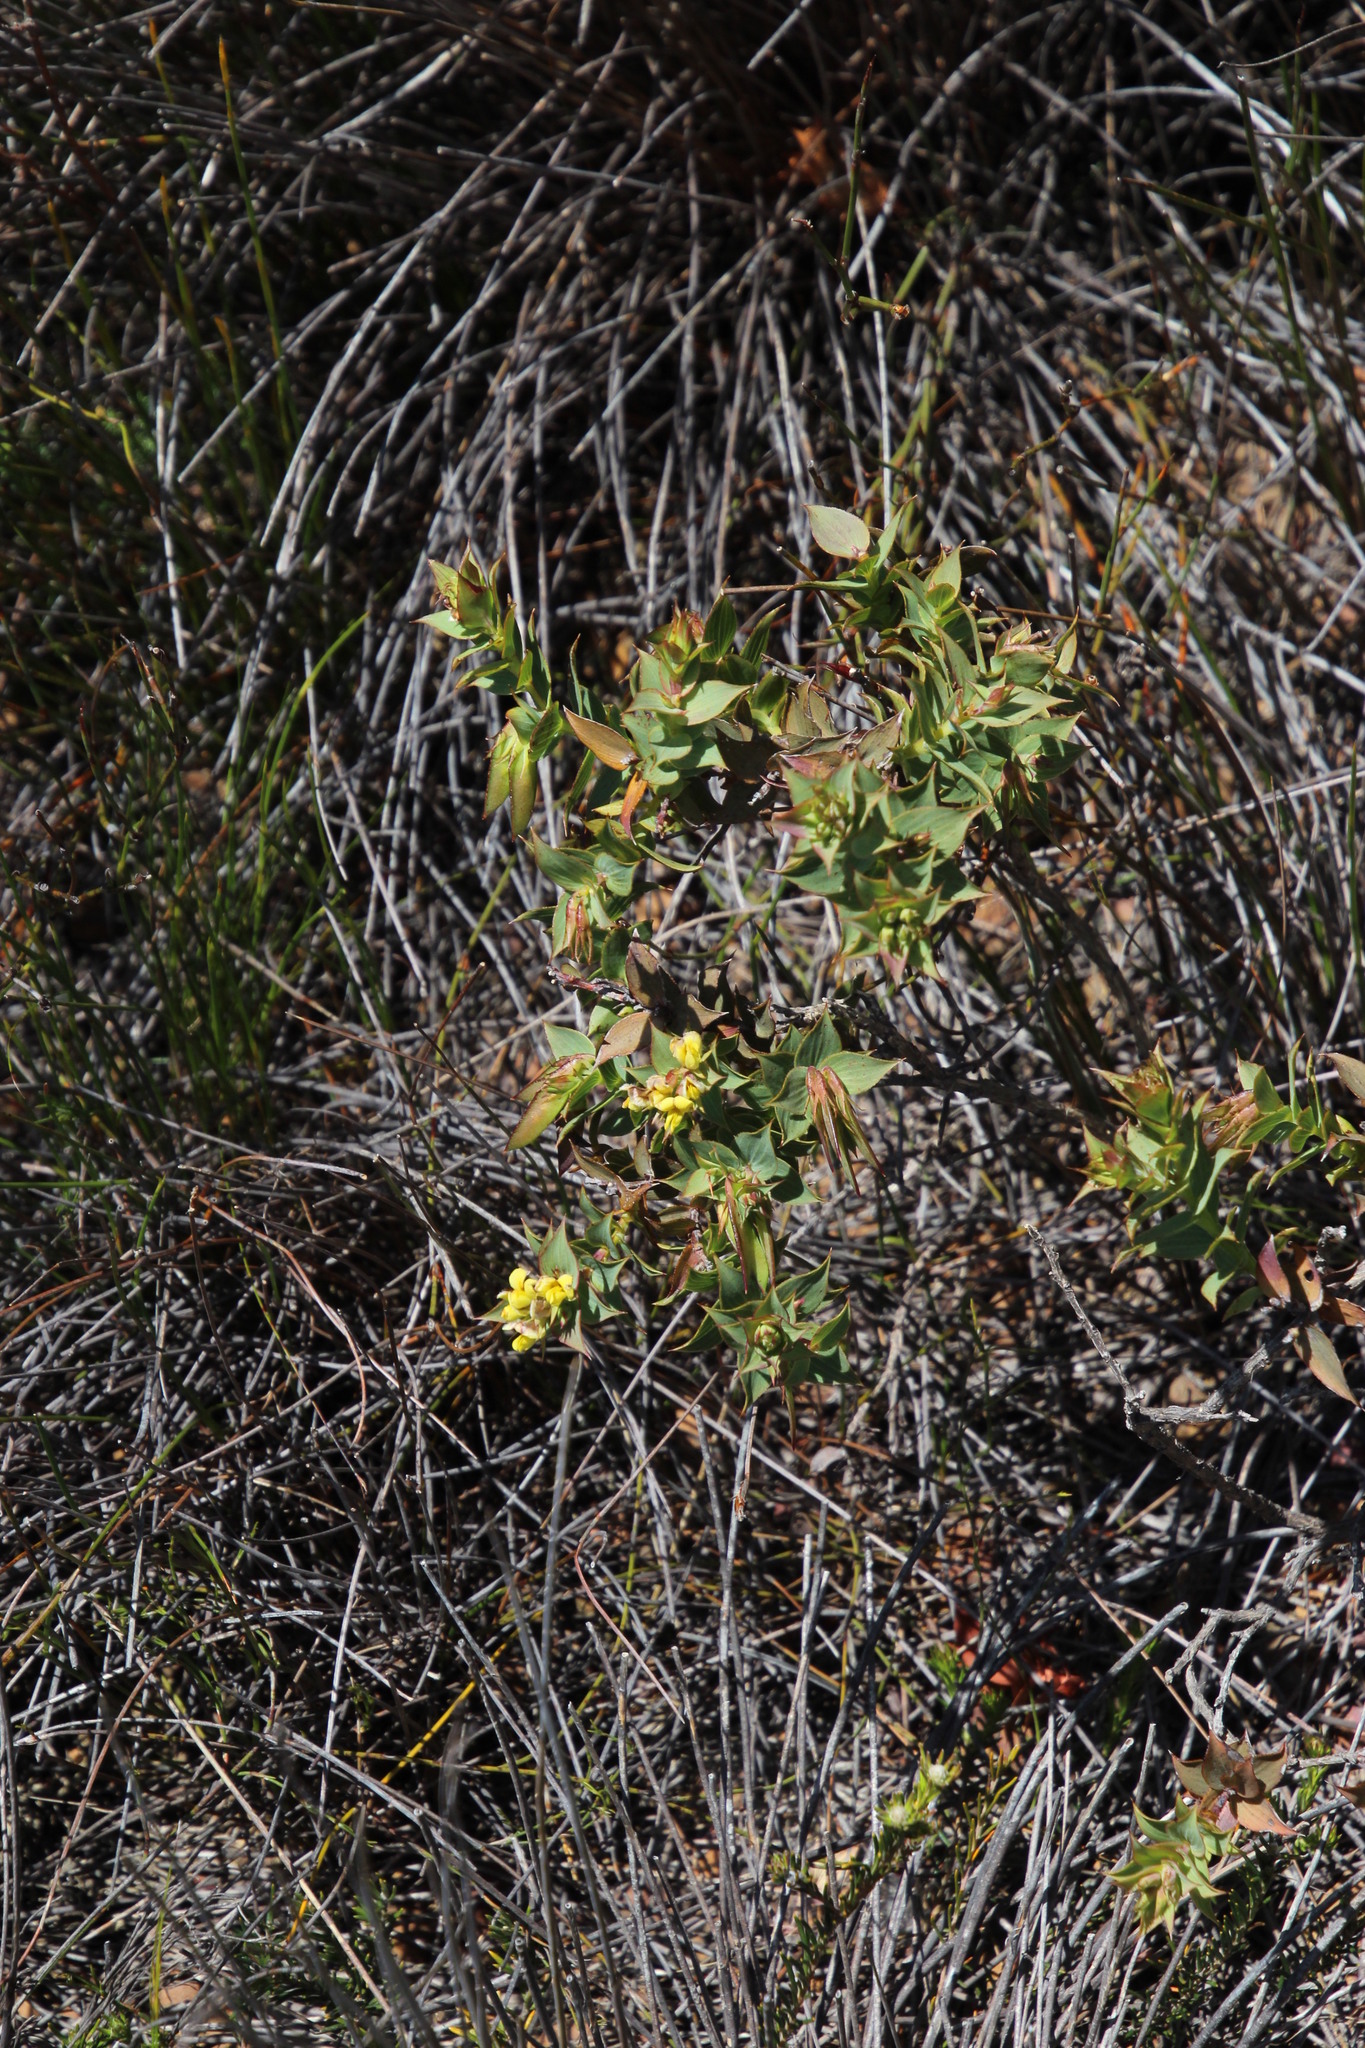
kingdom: Plantae
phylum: Tracheophyta
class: Magnoliopsida
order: Fabales
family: Fabaceae
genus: Aspalathus
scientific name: Aspalathus crenata
